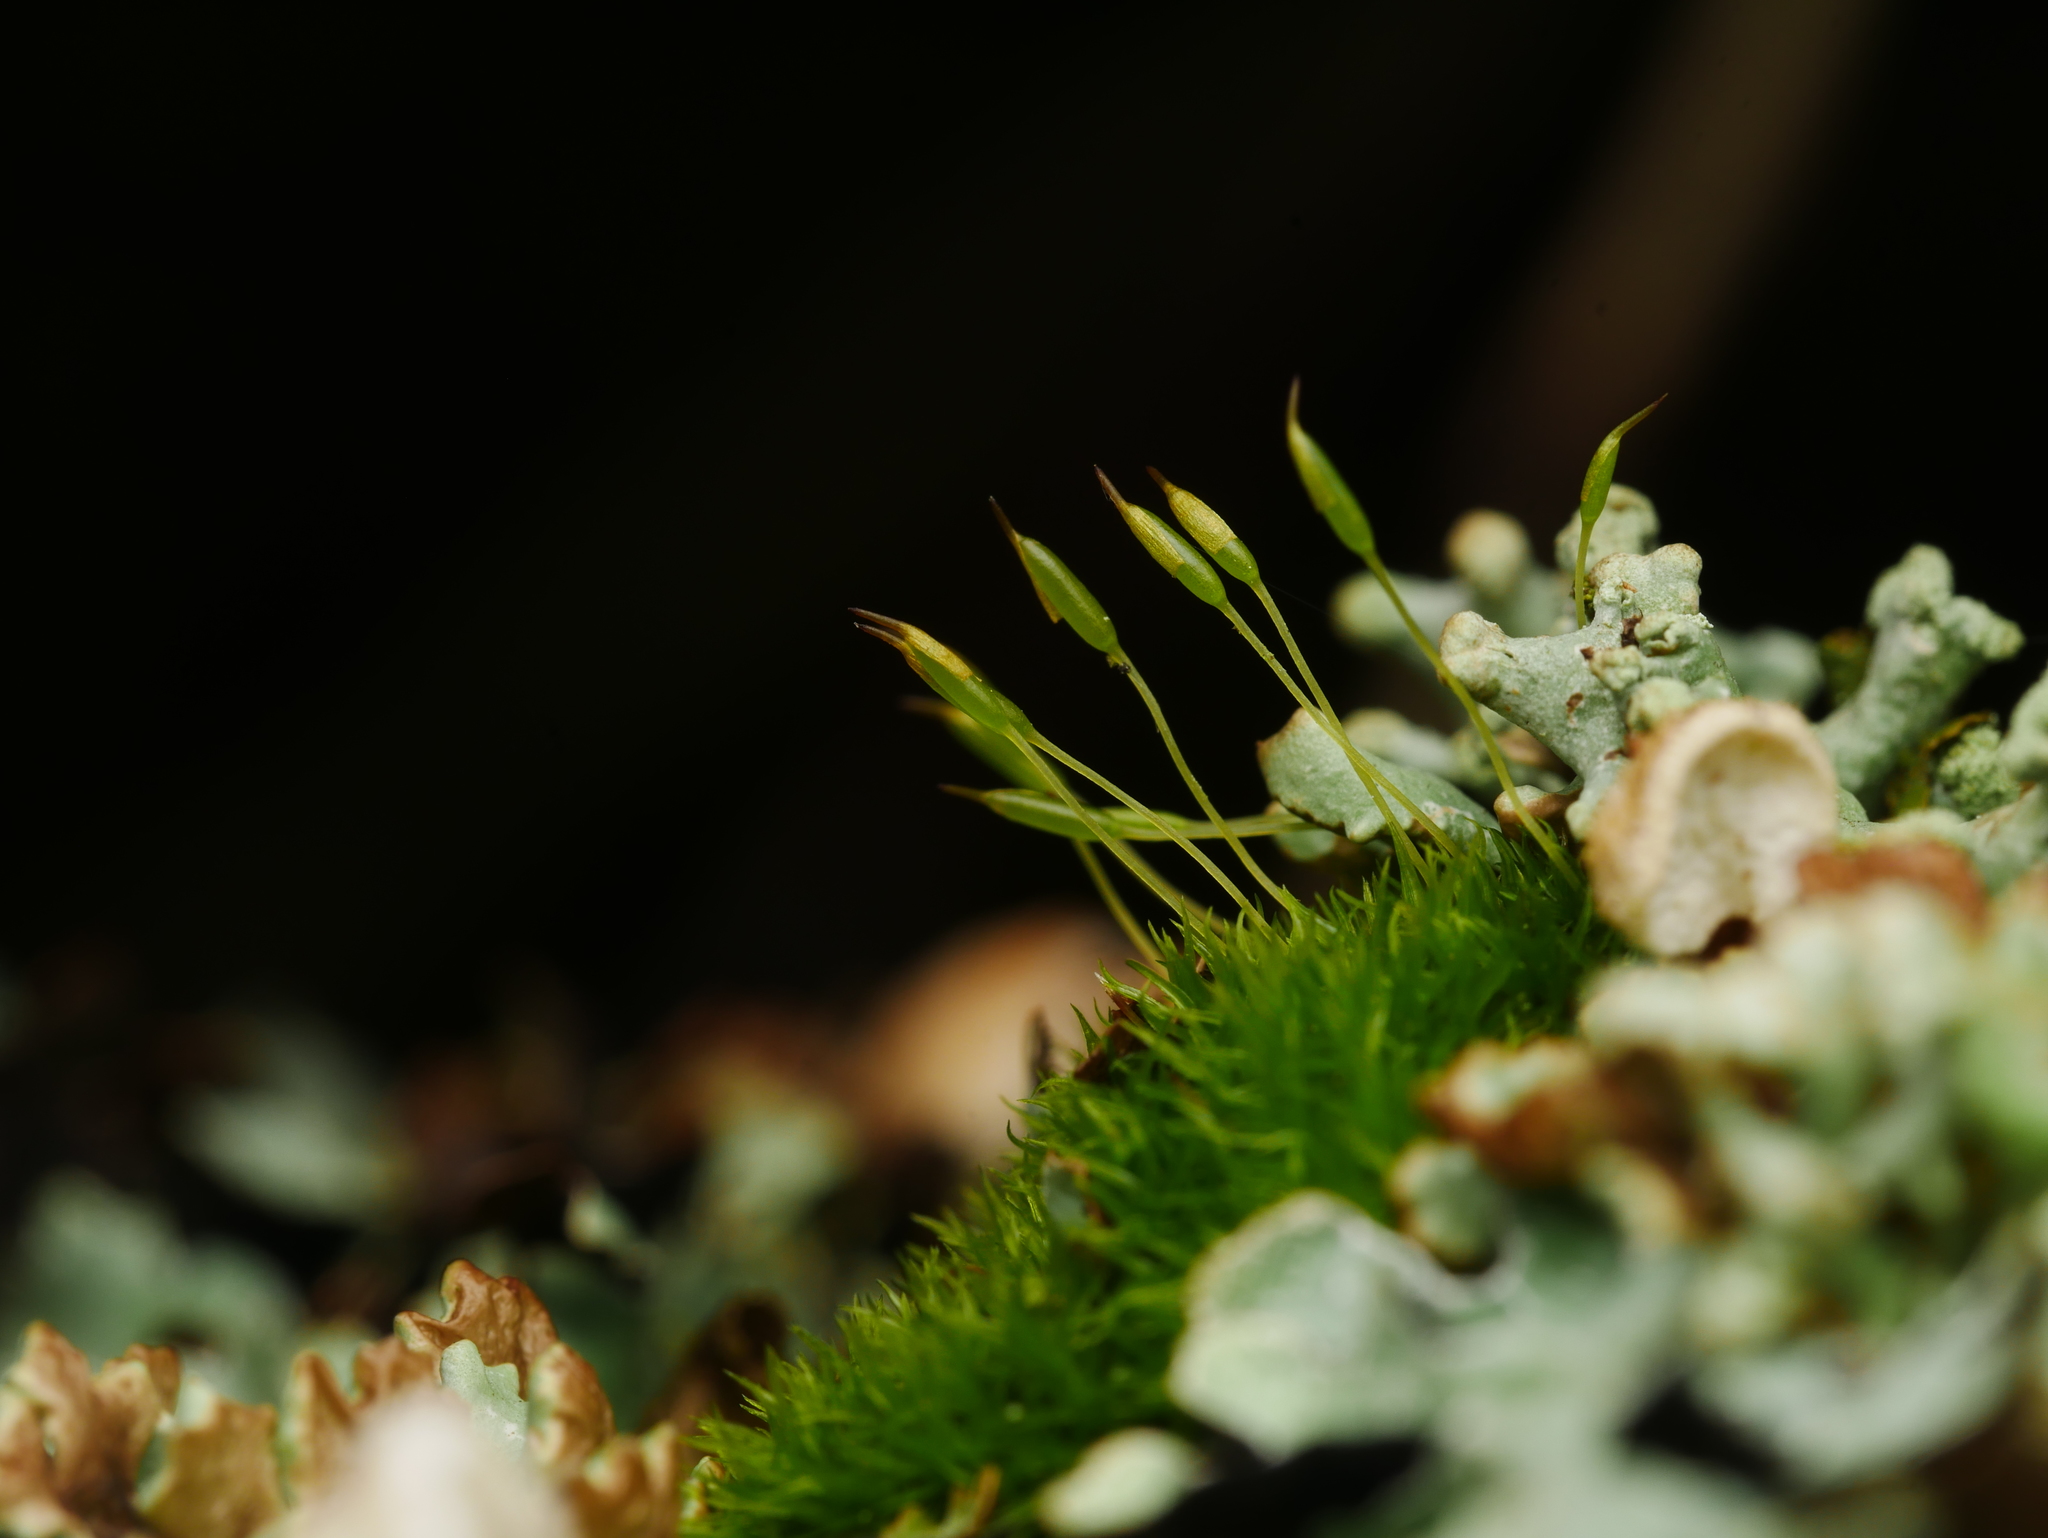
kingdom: Plantae
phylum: Bryophyta
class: Bryopsida
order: Dicranales
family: Rhabdoweisiaceae
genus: Dicranoweisia
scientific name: Dicranoweisia cirrata
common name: Common pincushion
